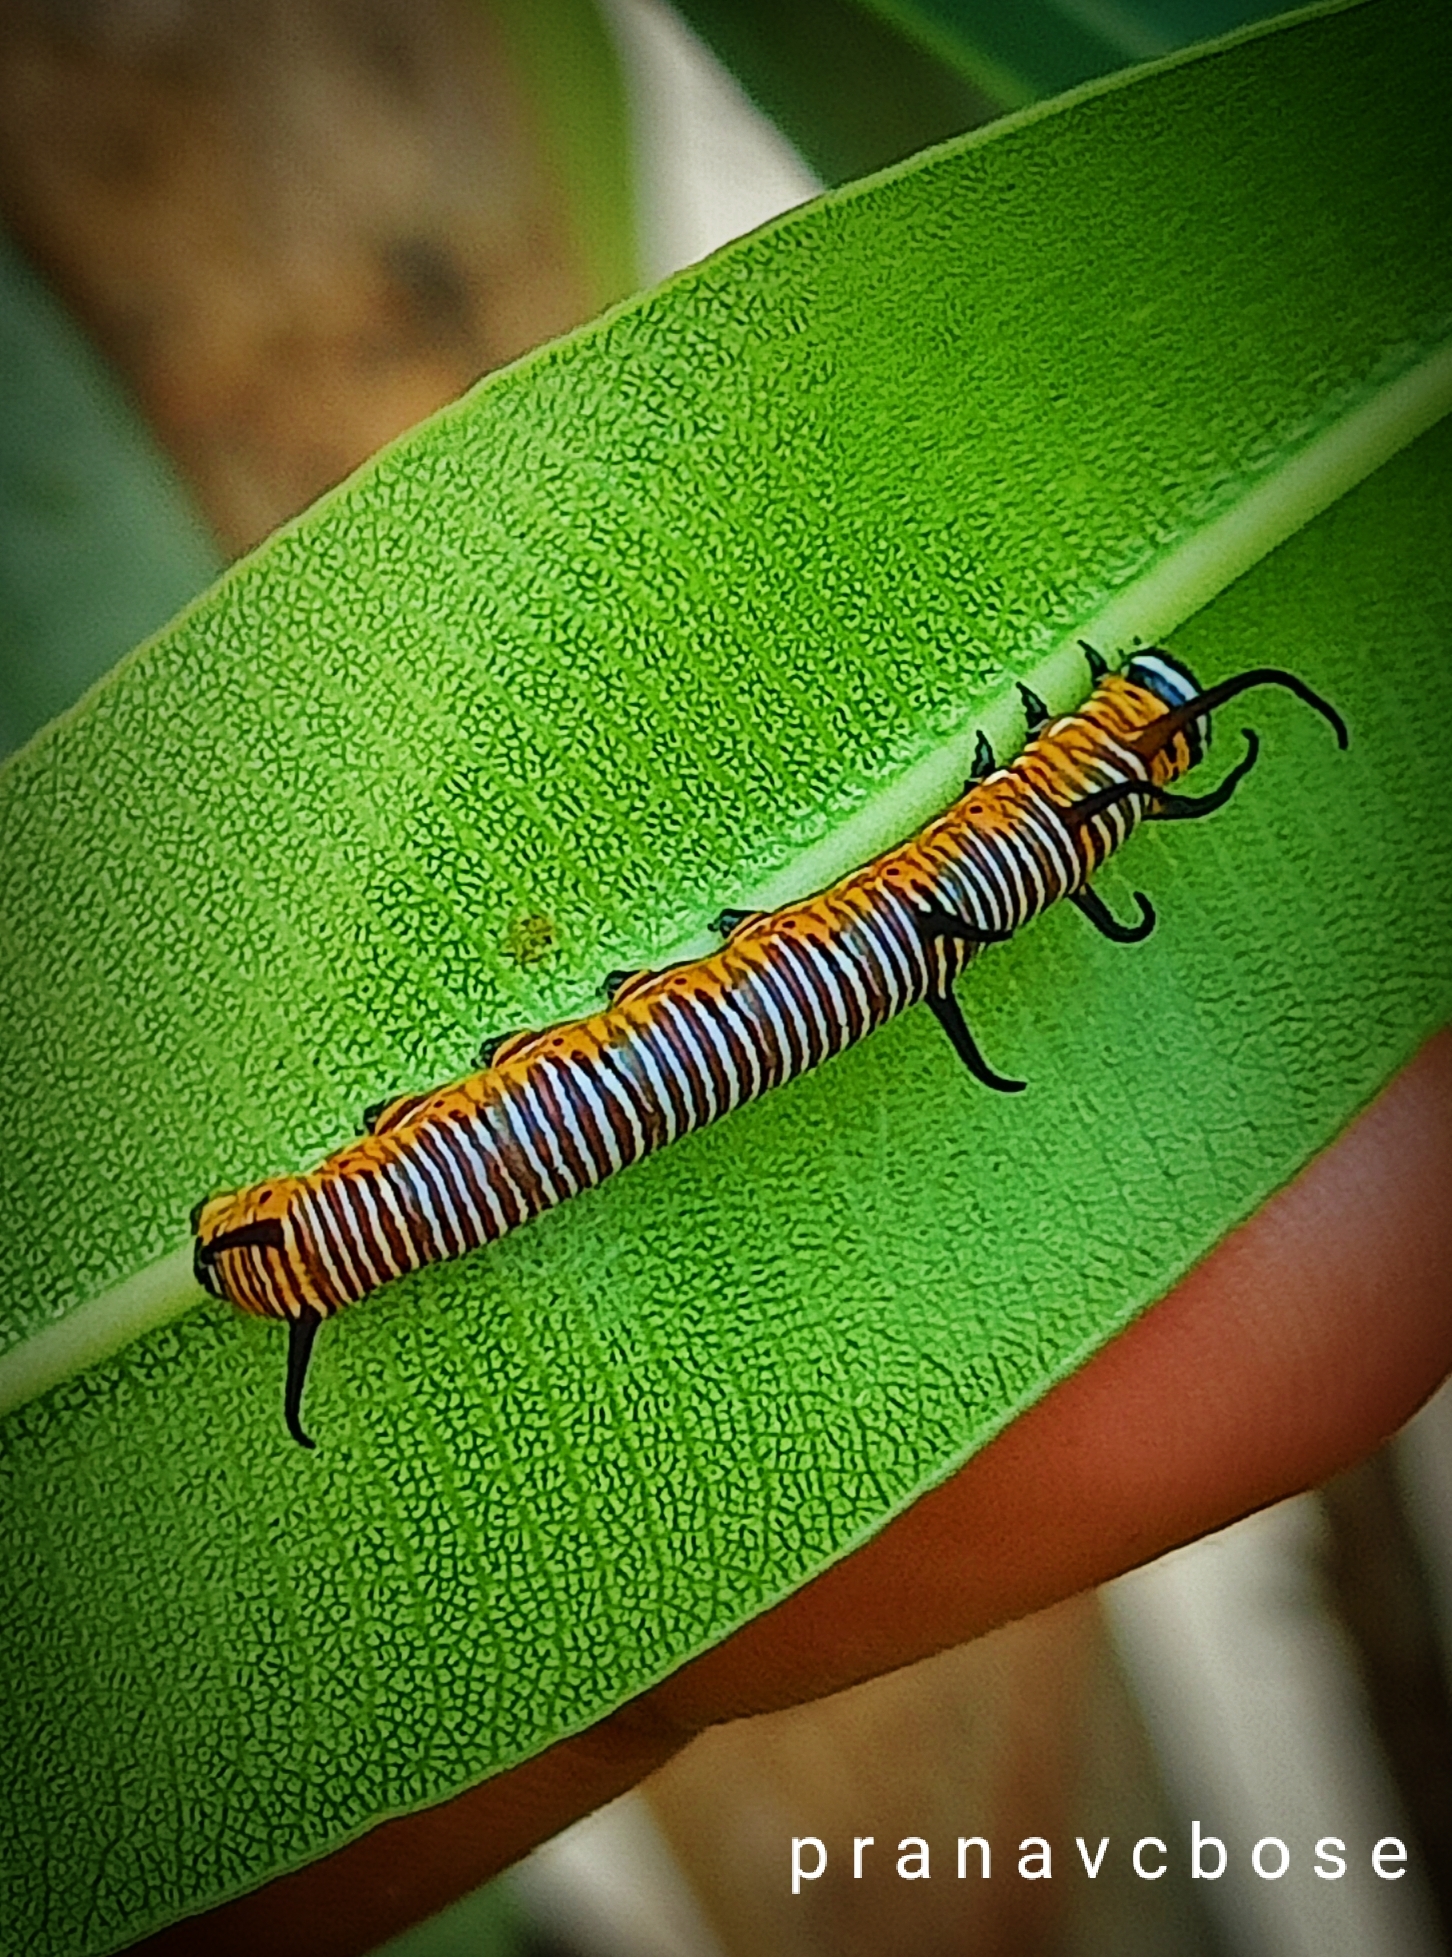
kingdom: Animalia
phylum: Arthropoda
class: Insecta
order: Lepidoptera
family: Nymphalidae
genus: Euploea
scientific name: Euploea core
